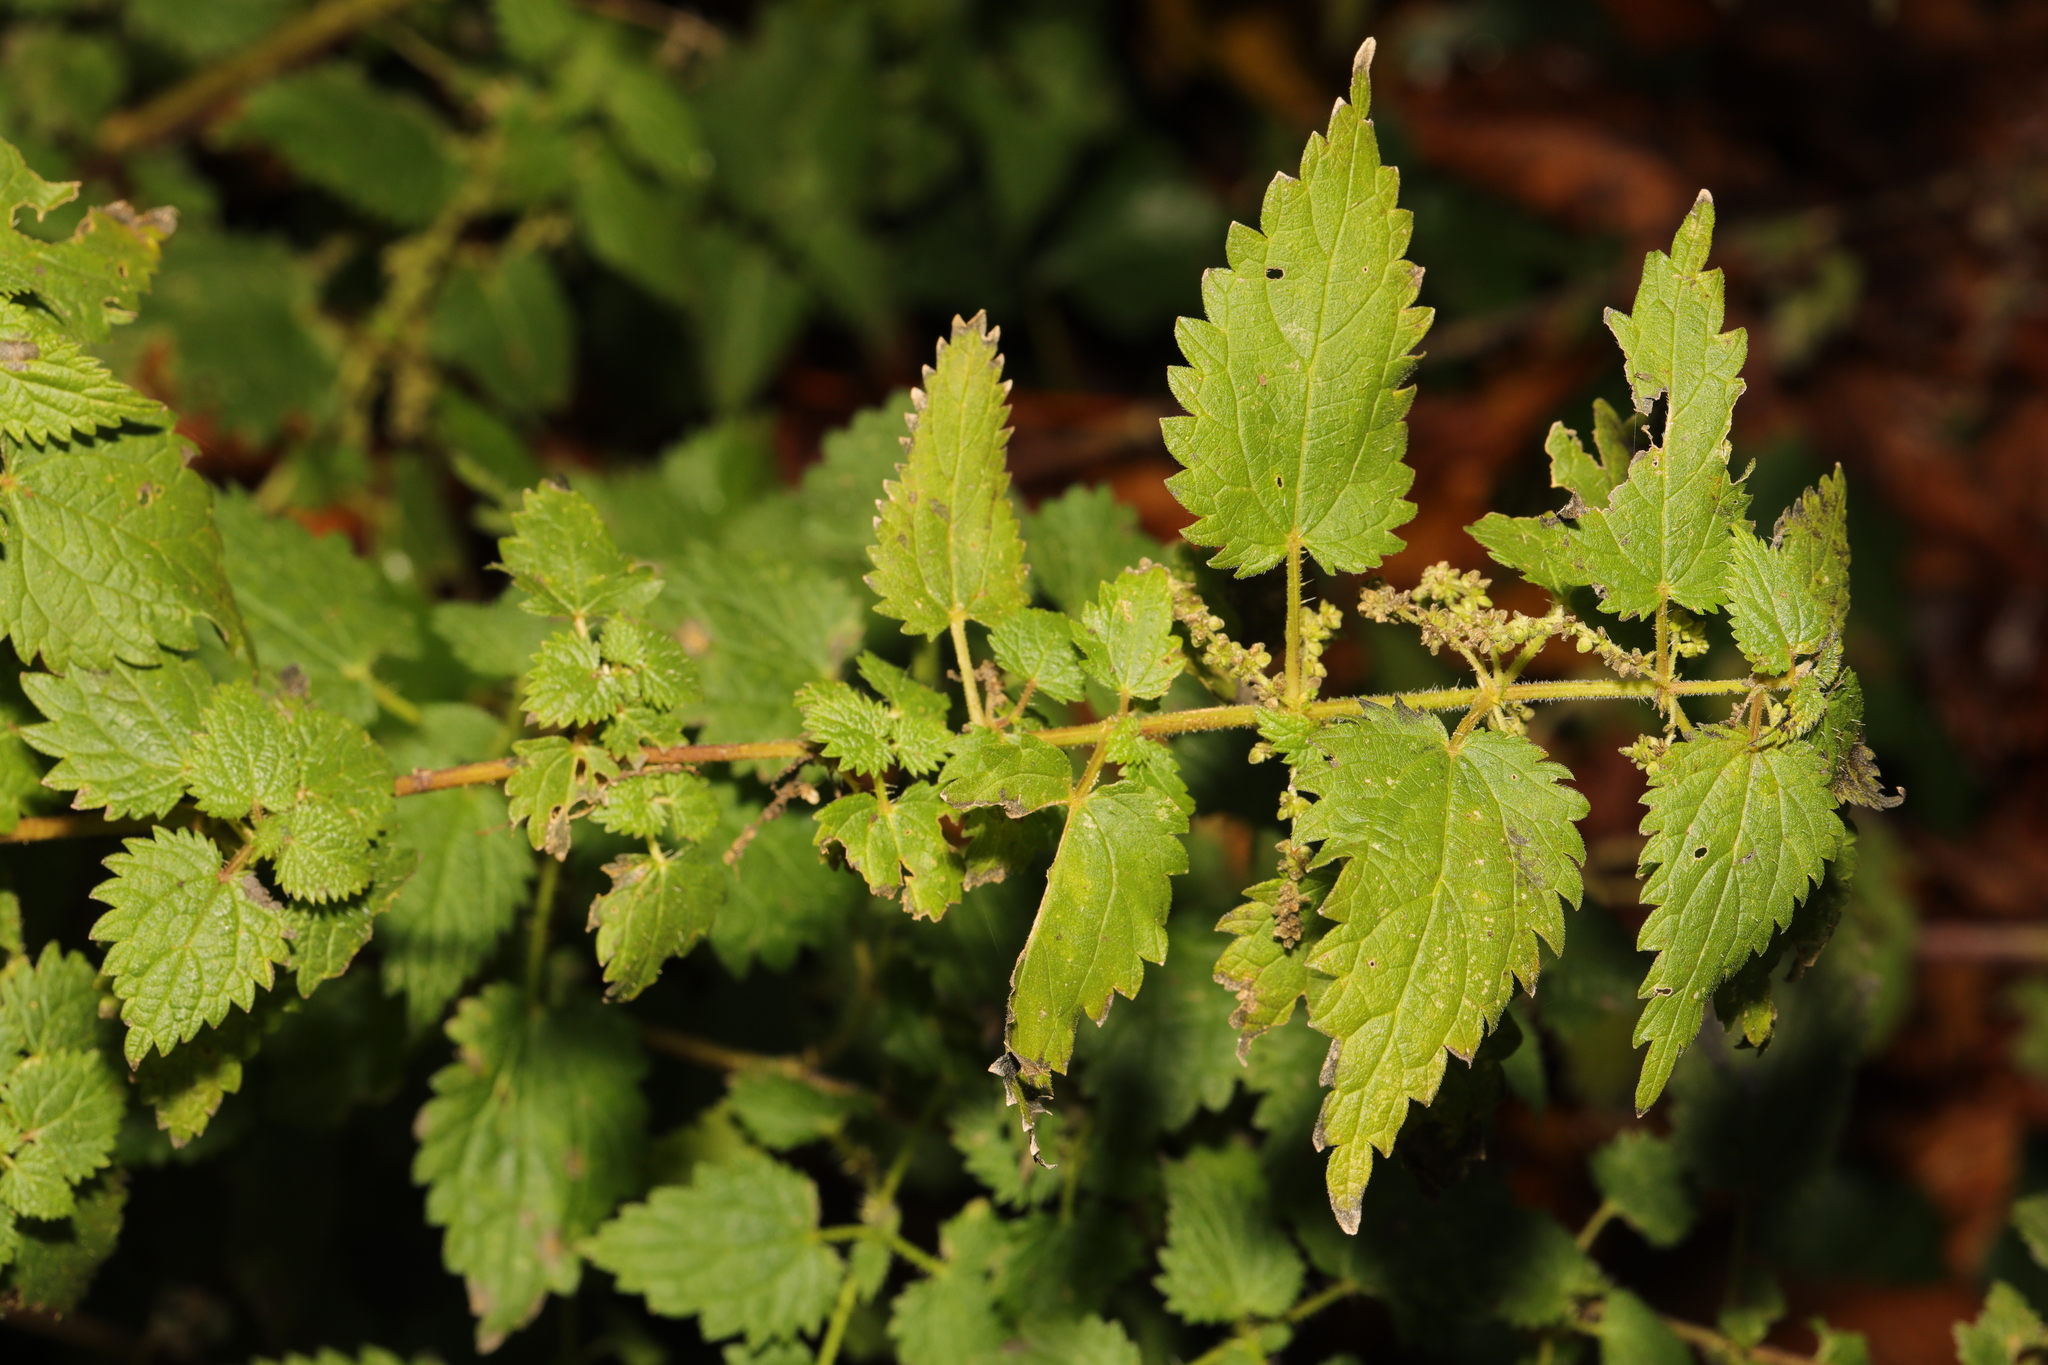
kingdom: Plantae
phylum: Tracheophyta
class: Magnoliopsida
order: Rosales
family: Urticaceae
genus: Urtica
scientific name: Urtica dioica
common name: Common nettle
